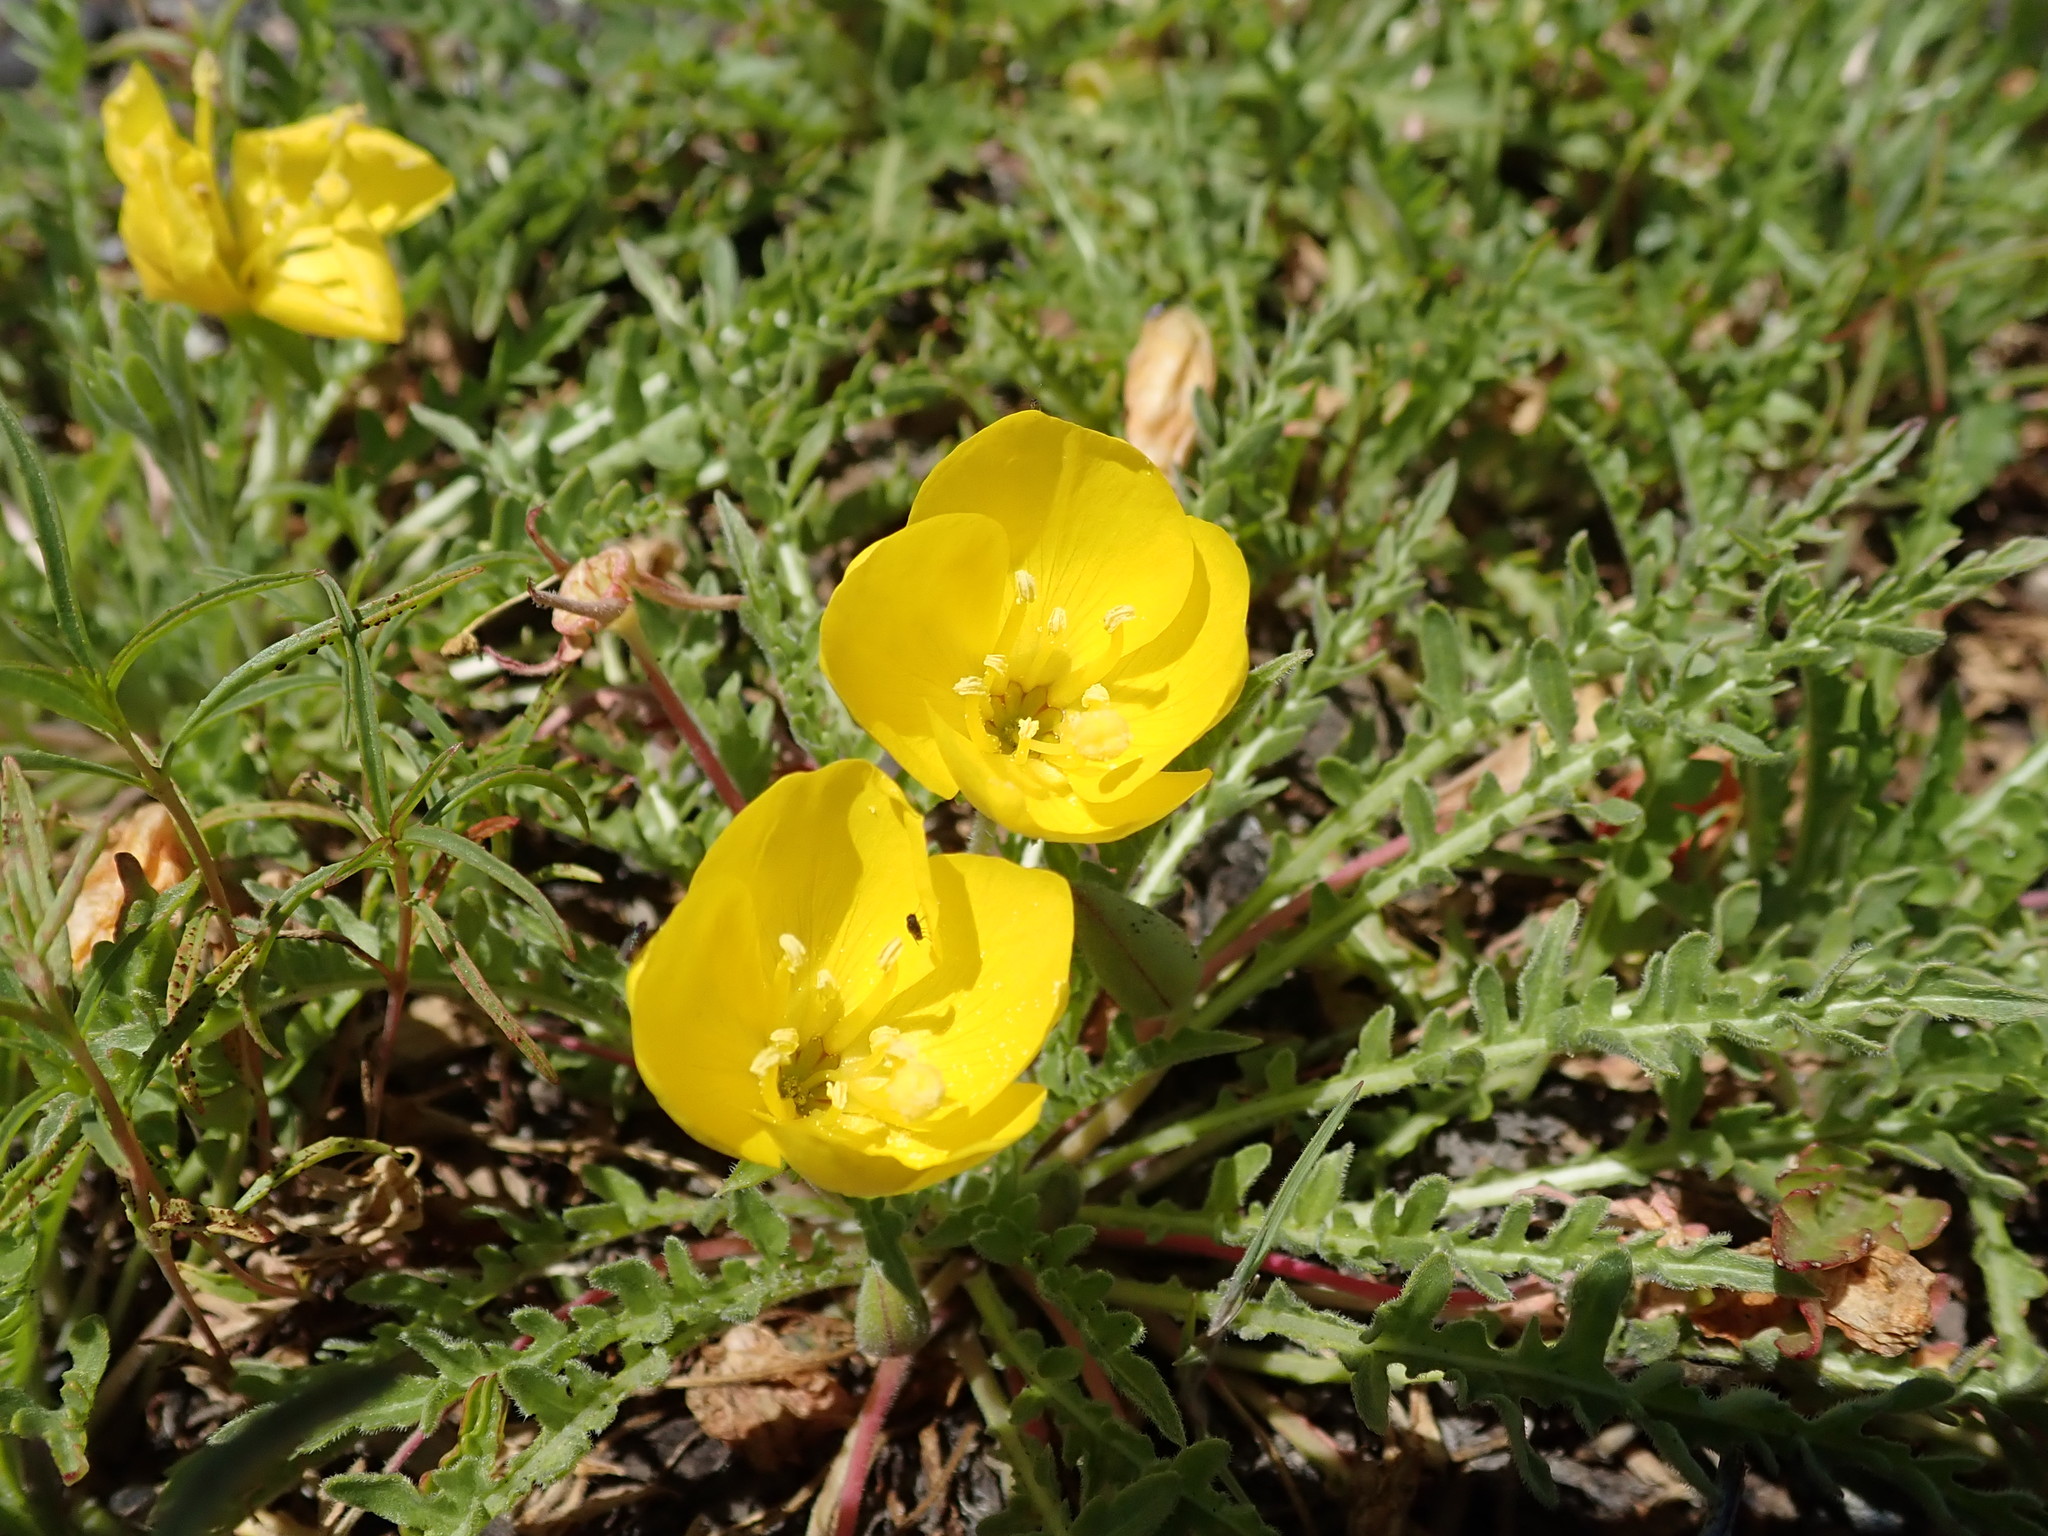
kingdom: Plantae
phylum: Tracheophyta
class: Magnoliopsida
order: Myrtales
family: Onagraceae
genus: Taraxia
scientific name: Taraxia tanacetifolia
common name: Tansyleaf evening primrose
